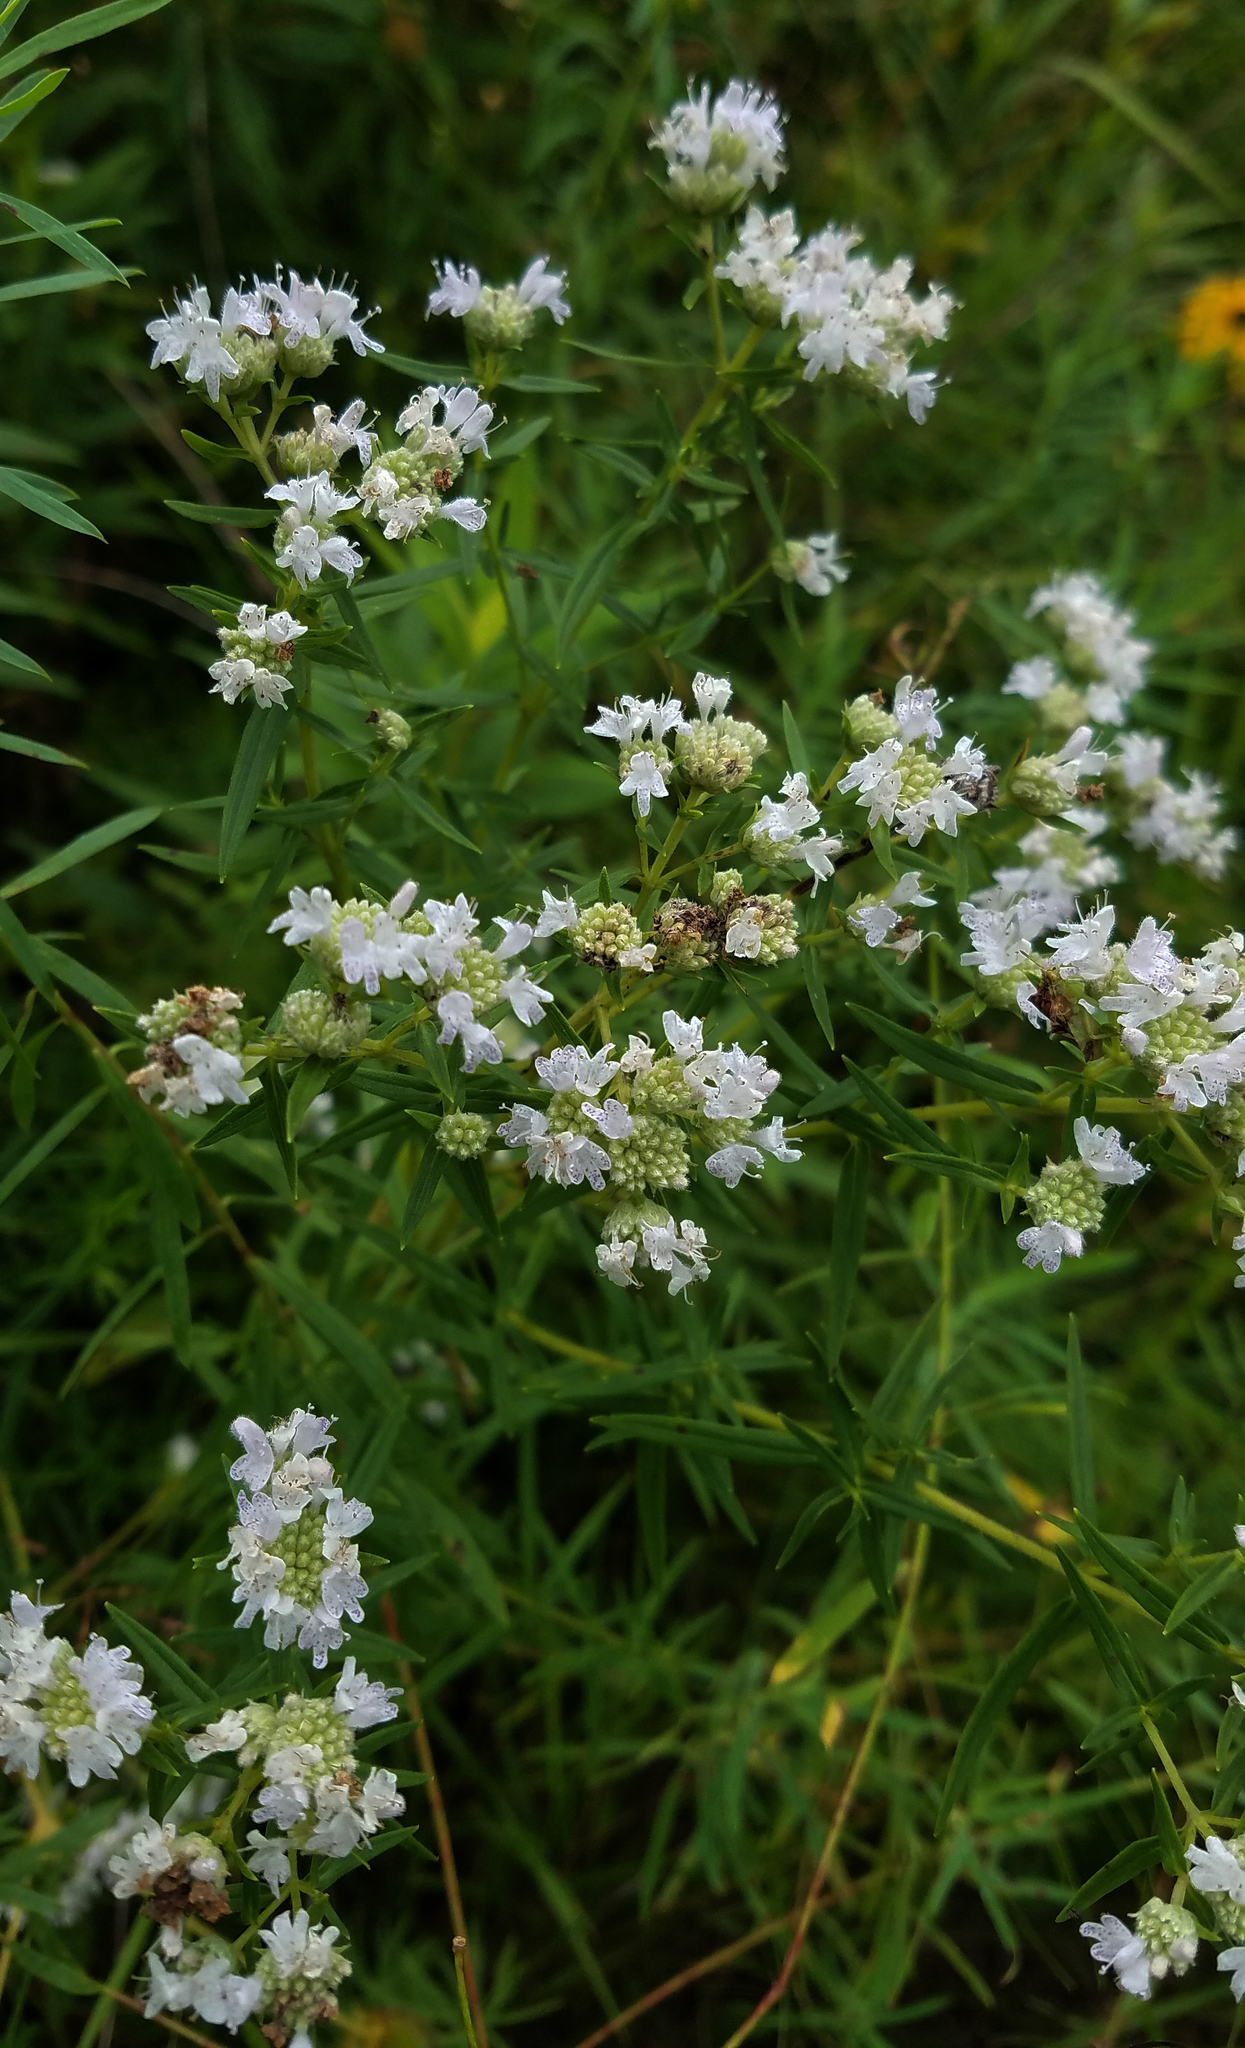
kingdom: Plantae
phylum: Tracheophyta
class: Magnoliopsida
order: Lamiales
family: Lamiaceae
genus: Pycnanthemum
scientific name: Pycnanthemum virginianum
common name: Virginia mountain-mint
